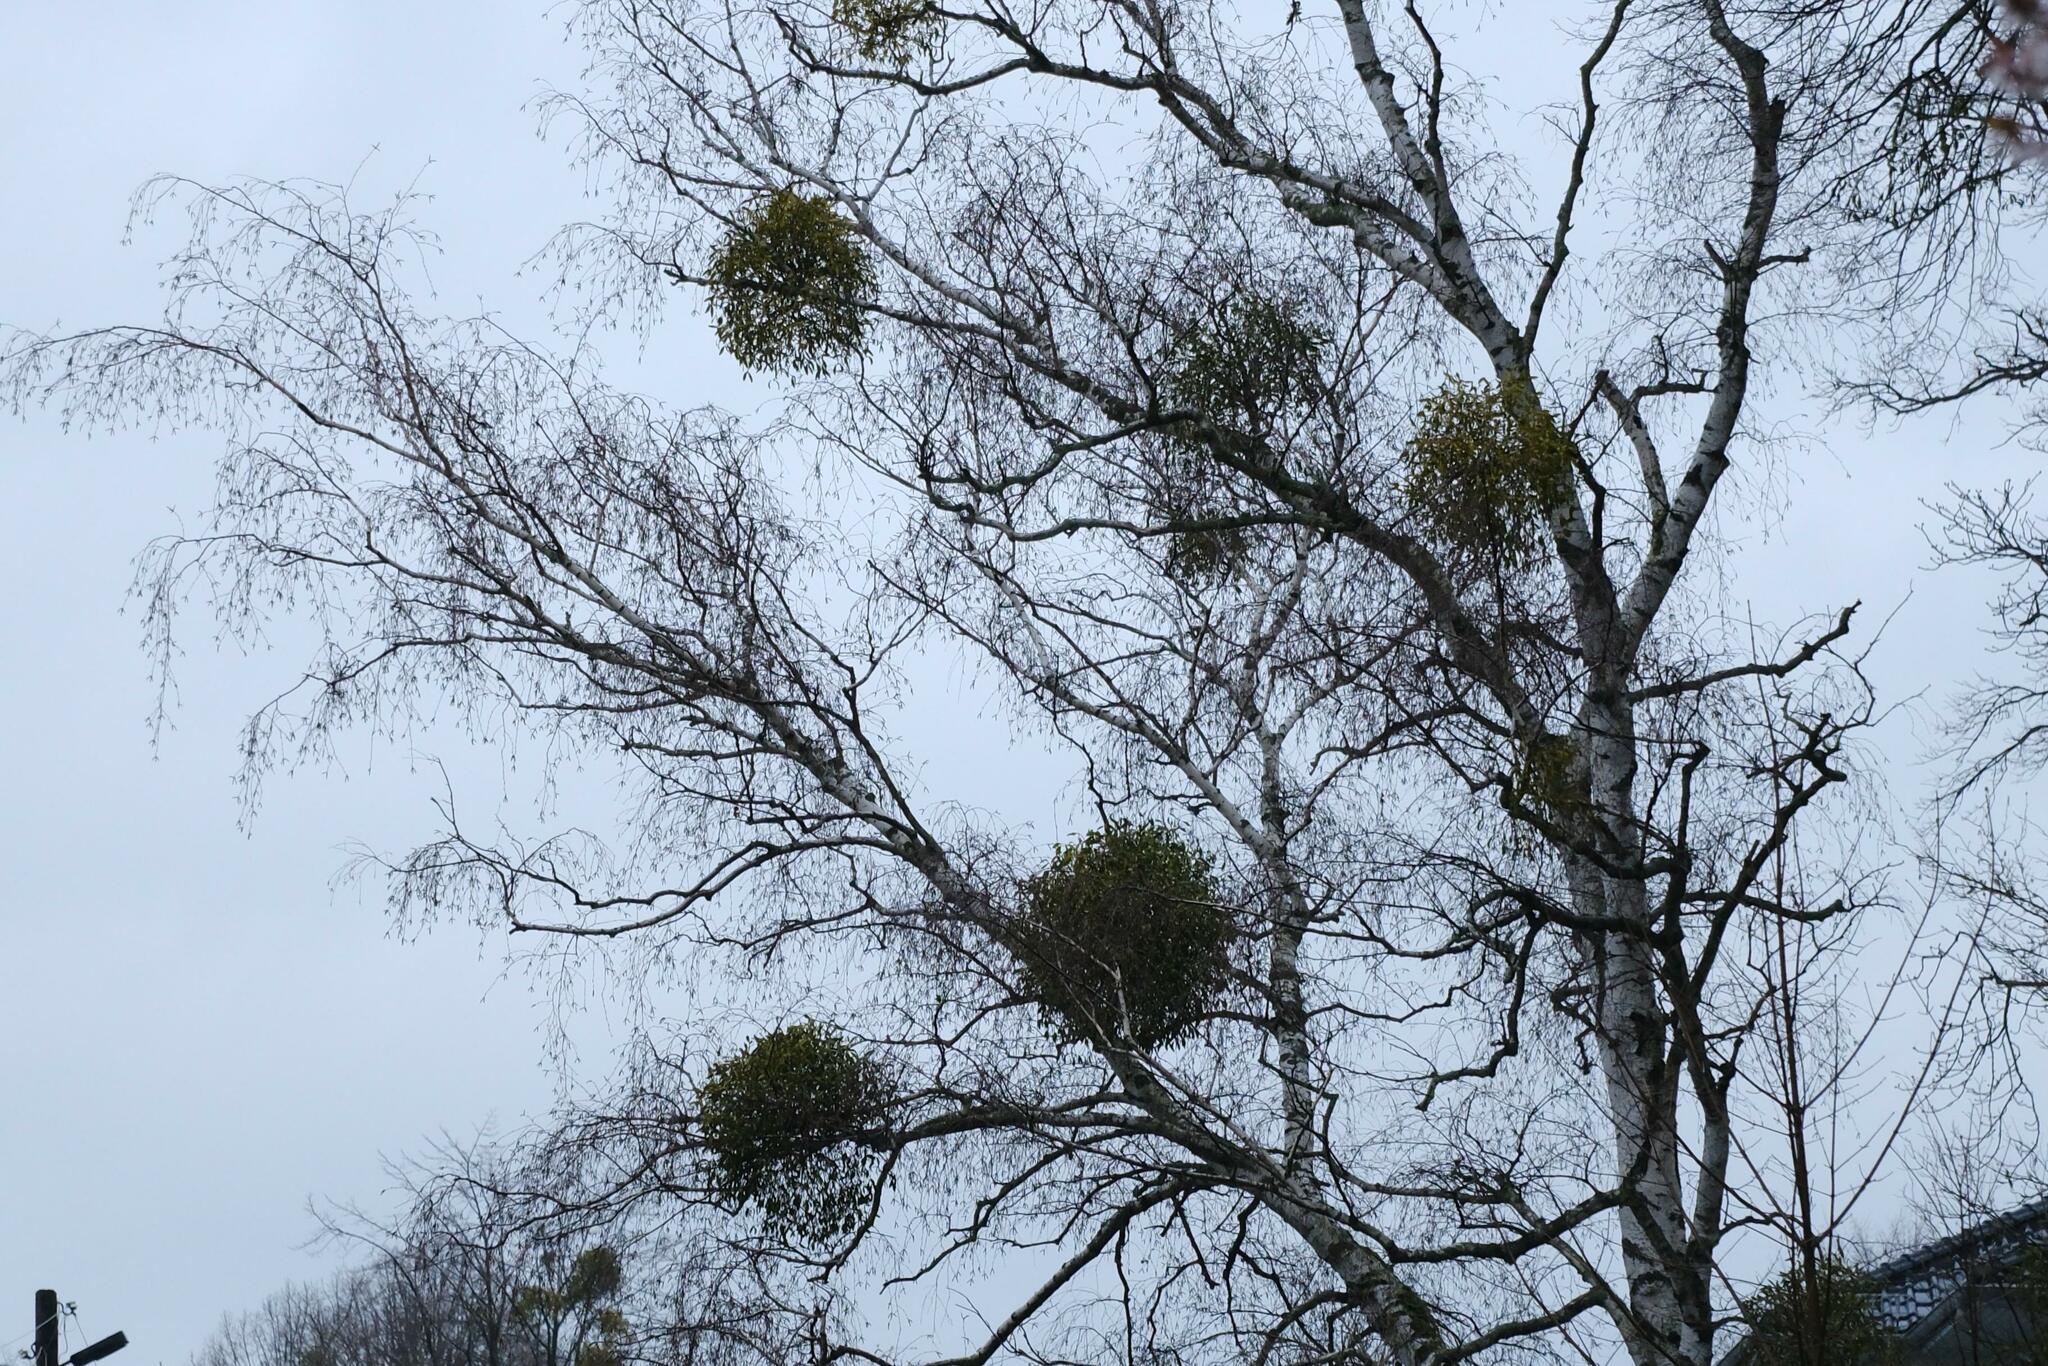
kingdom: Plantae
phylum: Tracheophyta
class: Magnoliopsida
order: Santalales
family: Viscaceae
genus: Viscum
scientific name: Viscum album
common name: Mistletoe
